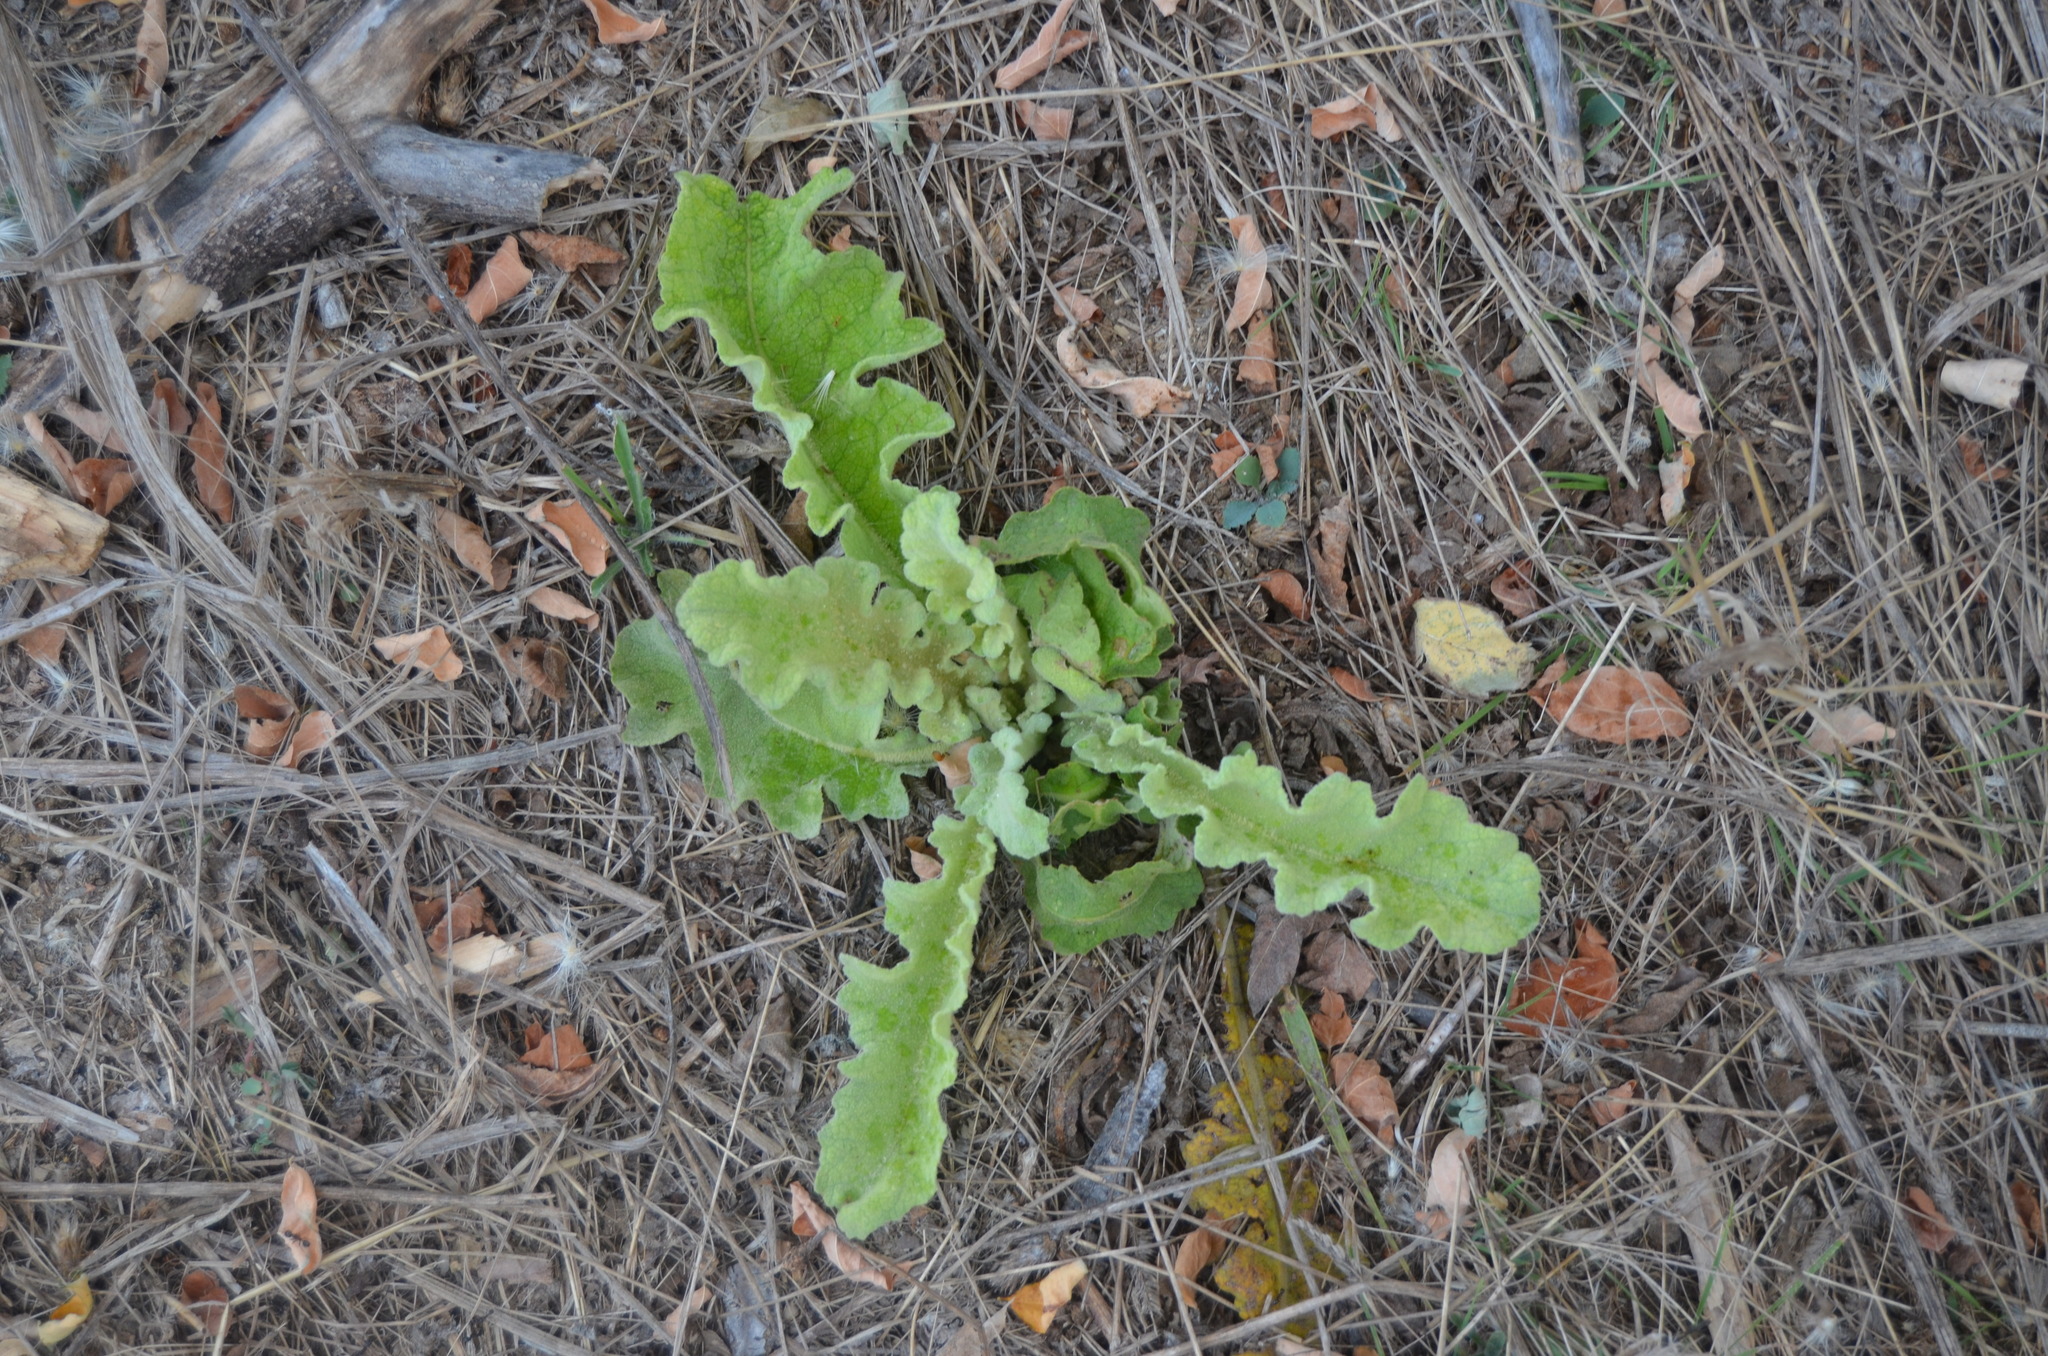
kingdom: Plantae
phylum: Tracheophyta
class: Magnoliopsida
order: Lamiales
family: Scrophulariaceae
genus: Verbascum
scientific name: Verbascum sinuatum
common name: Wavyleaf mullein
